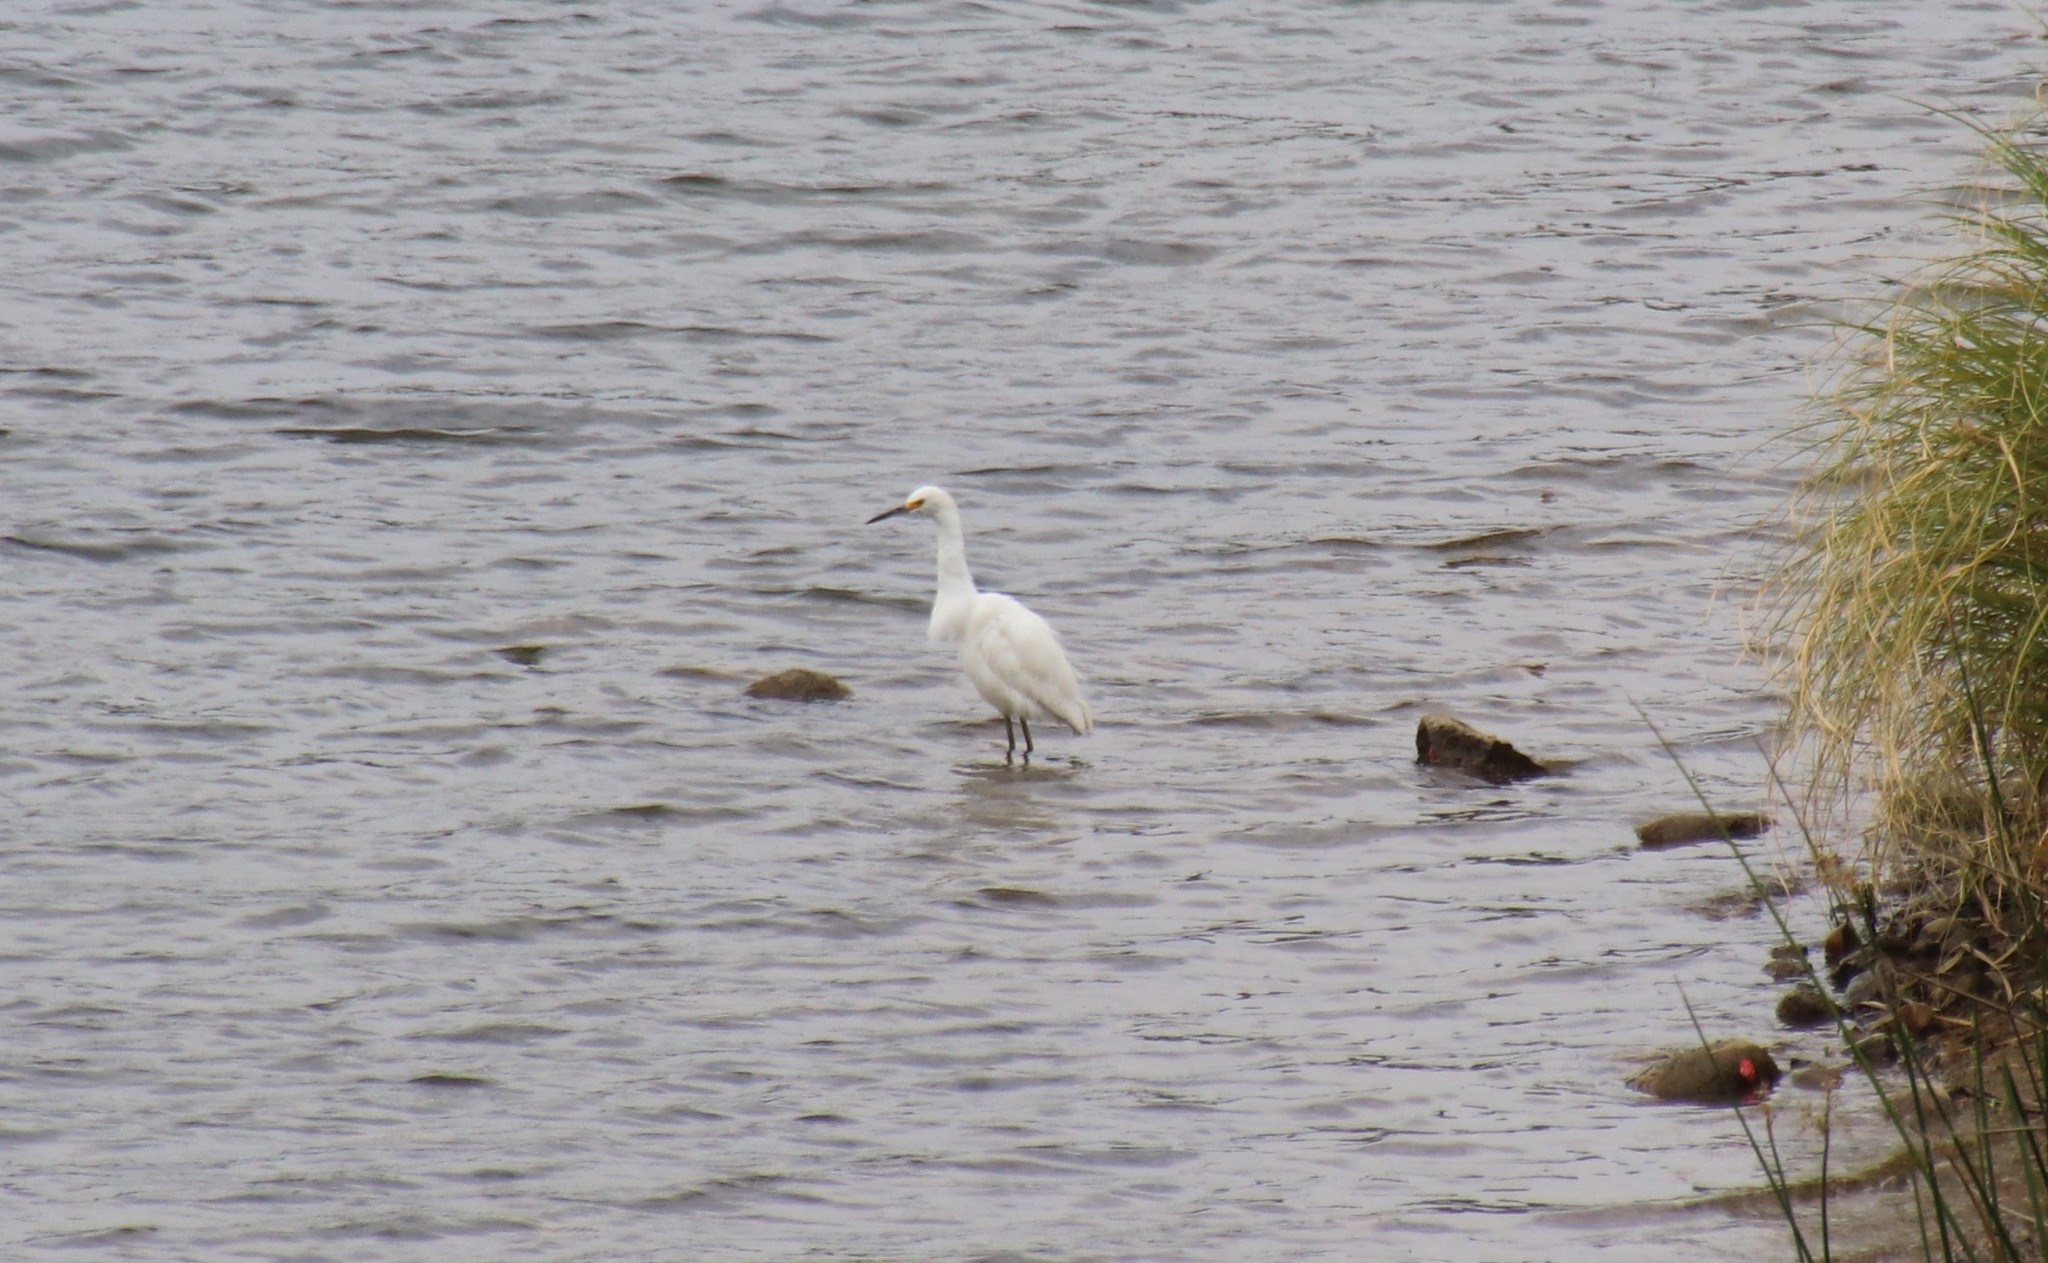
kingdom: Animalia
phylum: Chordata
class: Aves
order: Pelecaniformes
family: Ardeidae
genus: Egretta
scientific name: Egretta thula
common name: Snowy egret
